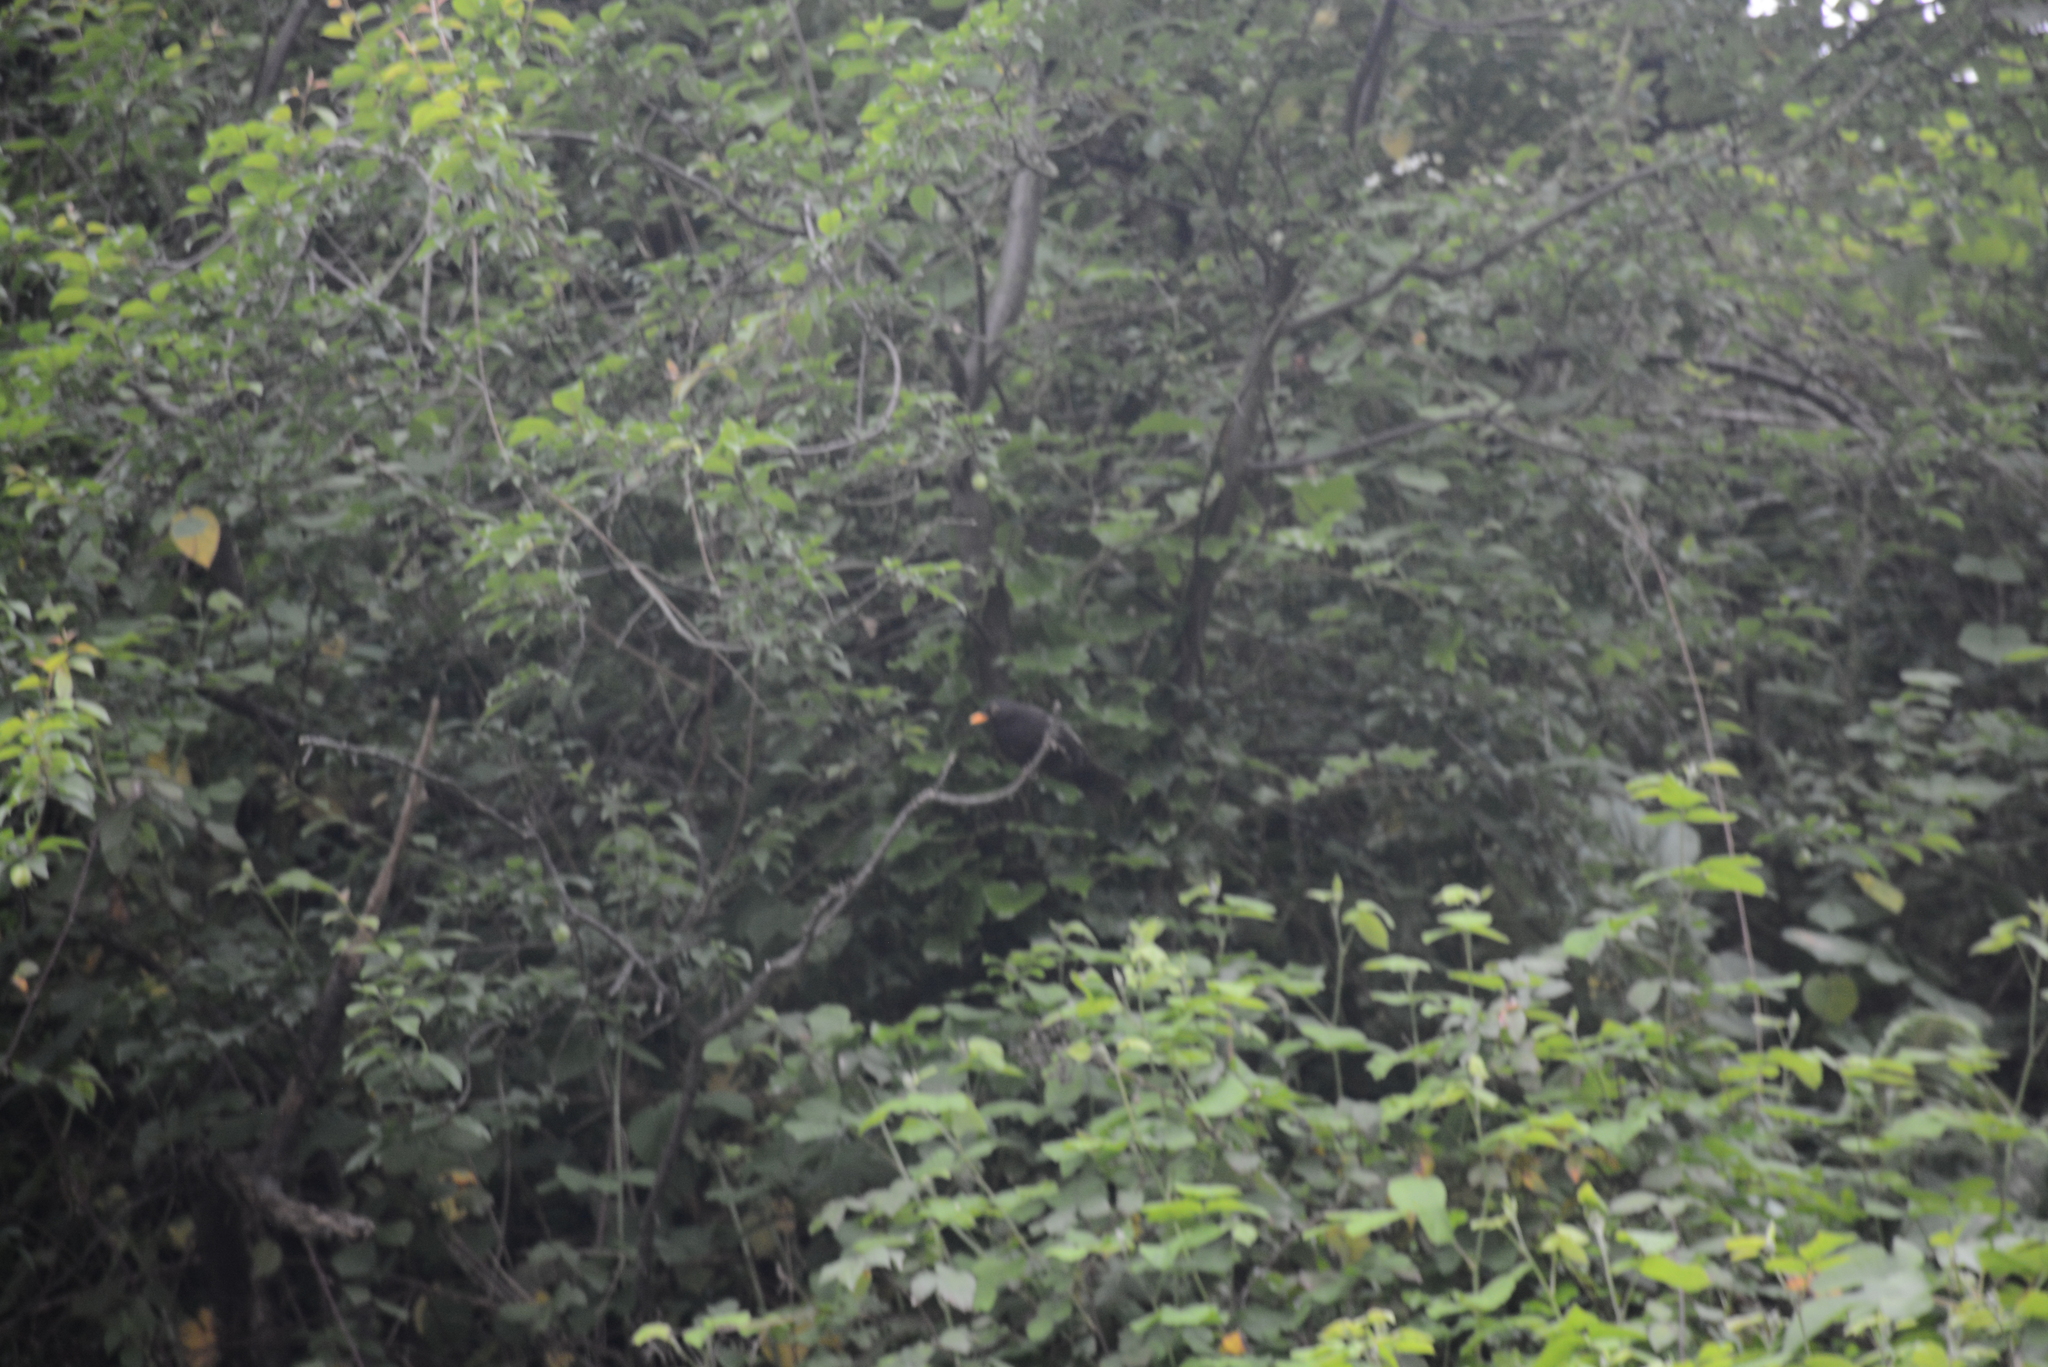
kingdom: Animalia
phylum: Chordata
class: Aves
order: Passeriformes
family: Turdidae
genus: Turdus
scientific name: Turdus merula
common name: Common blackbird
